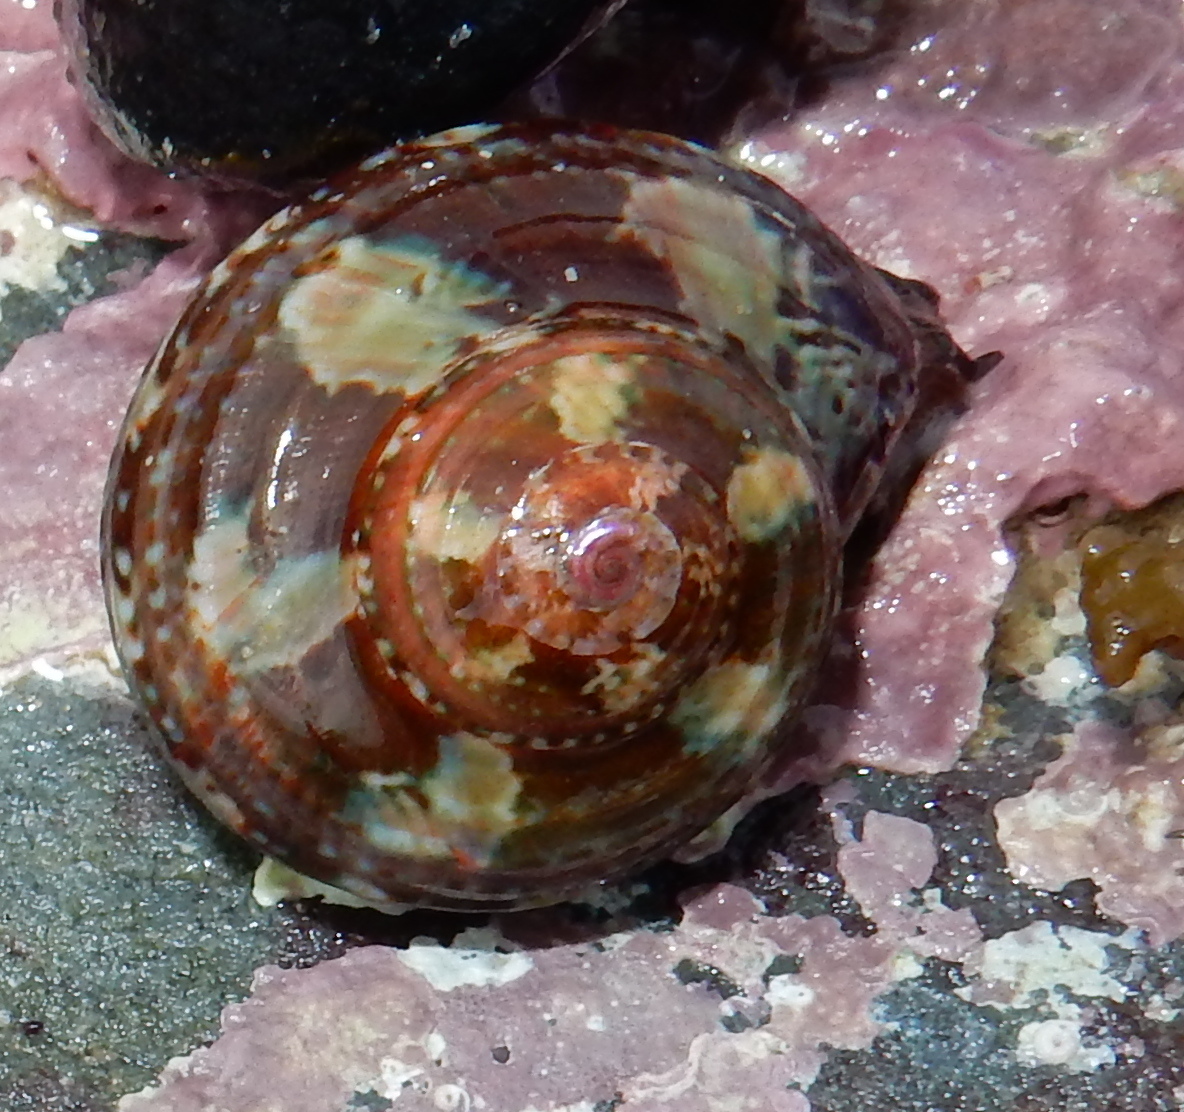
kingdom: Animalia
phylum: Mollusca
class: Gastropoda
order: Trochida
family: Turbinidae
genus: Turbo
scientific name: Turbo cidaris
